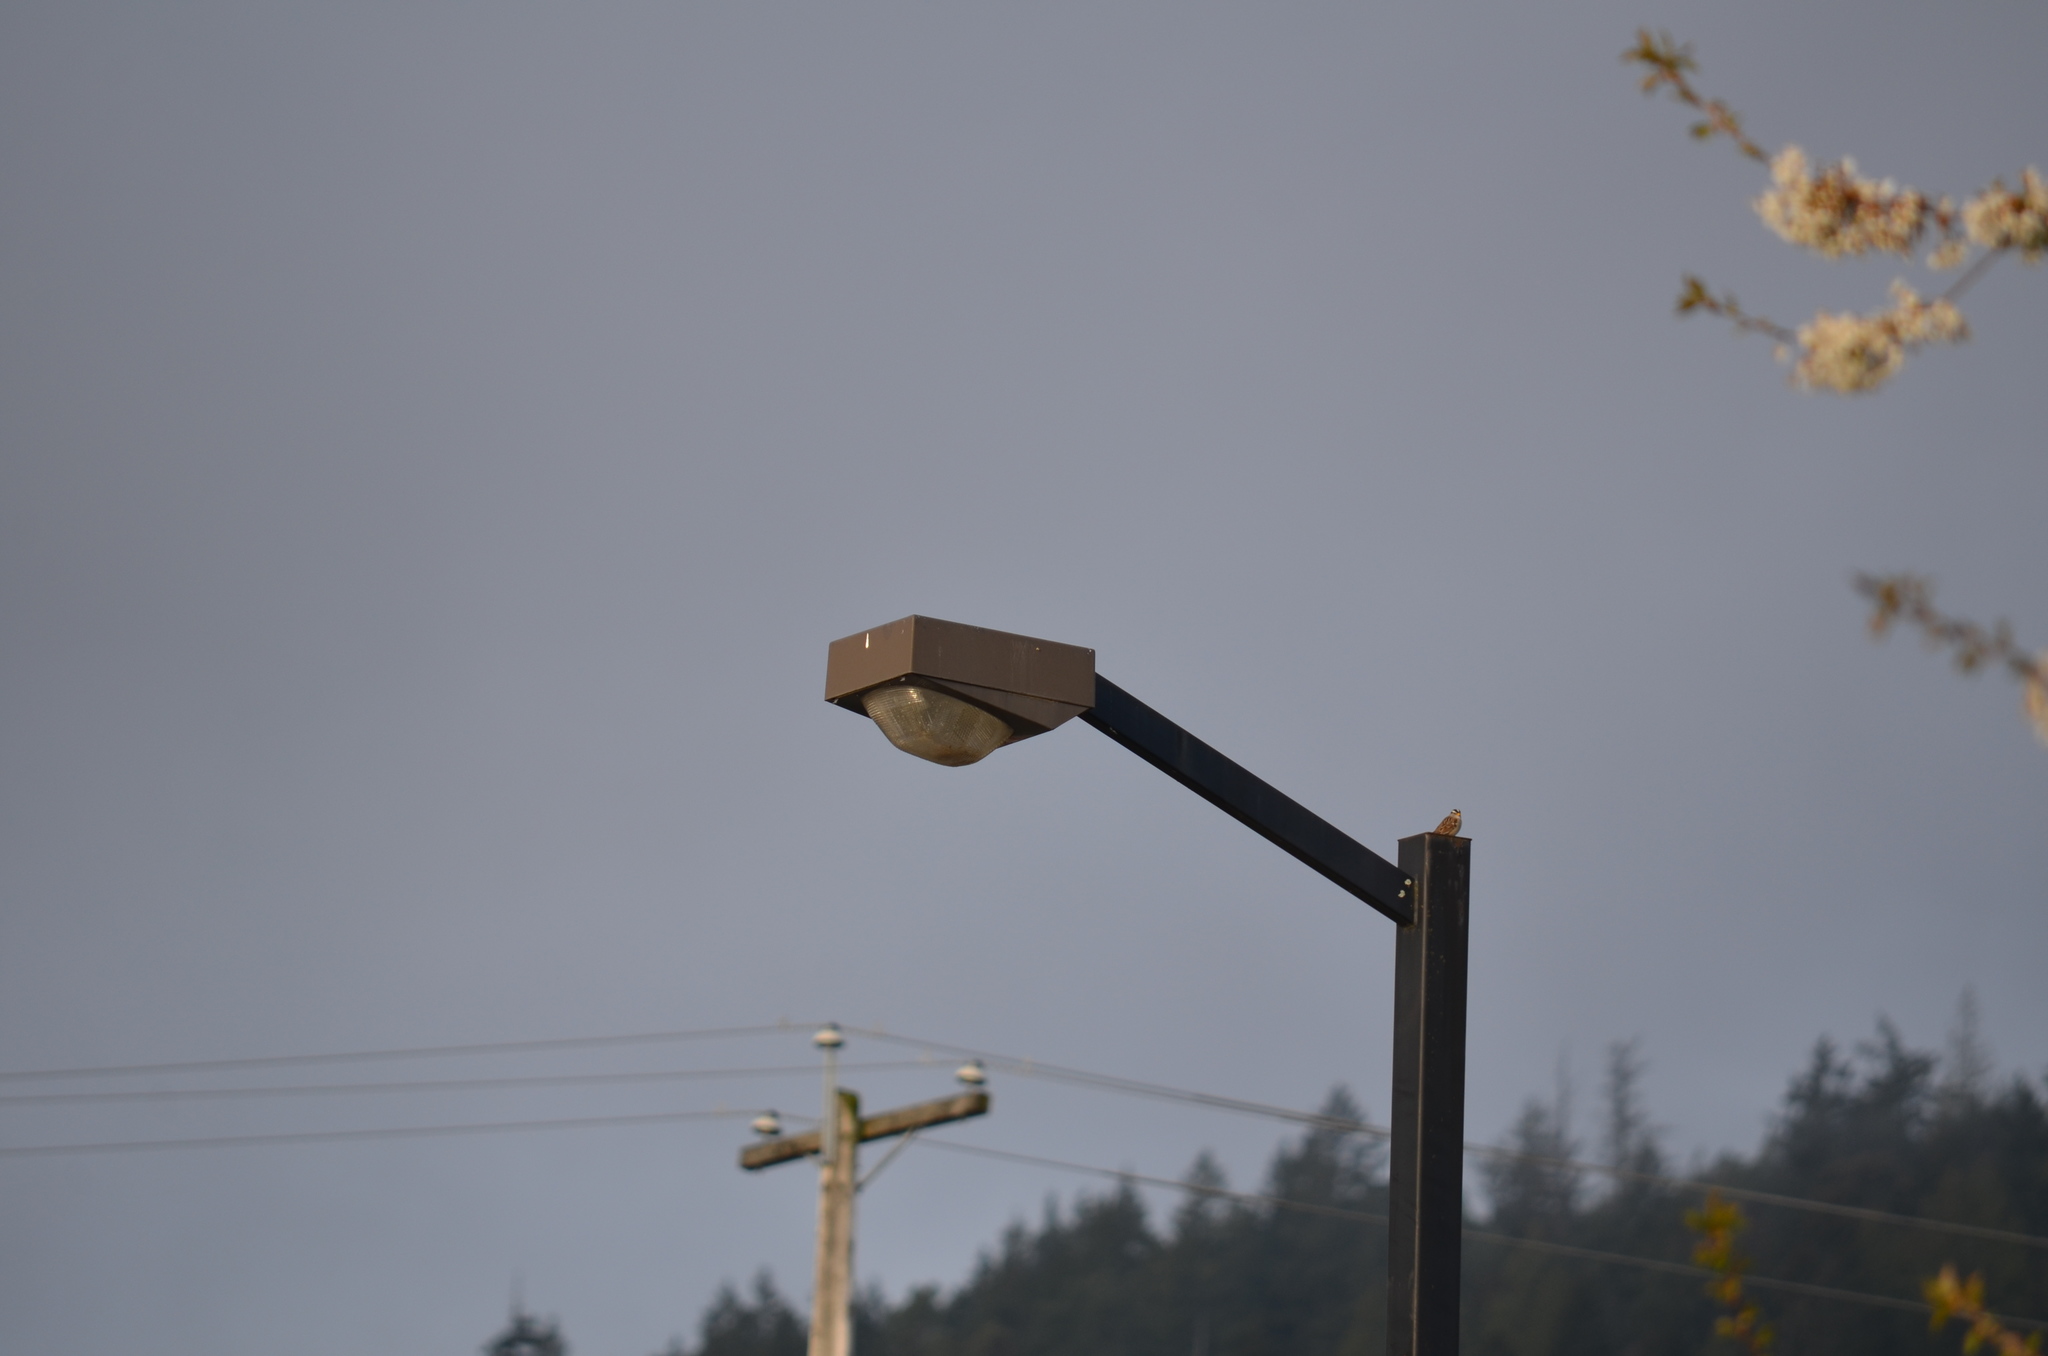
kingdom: Animalia
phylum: Chordata
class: Aves
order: Passeriformes
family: Passerellidae
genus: Zonotrichia
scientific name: Zonotrichia leucophrys
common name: White-crowned sparrow
